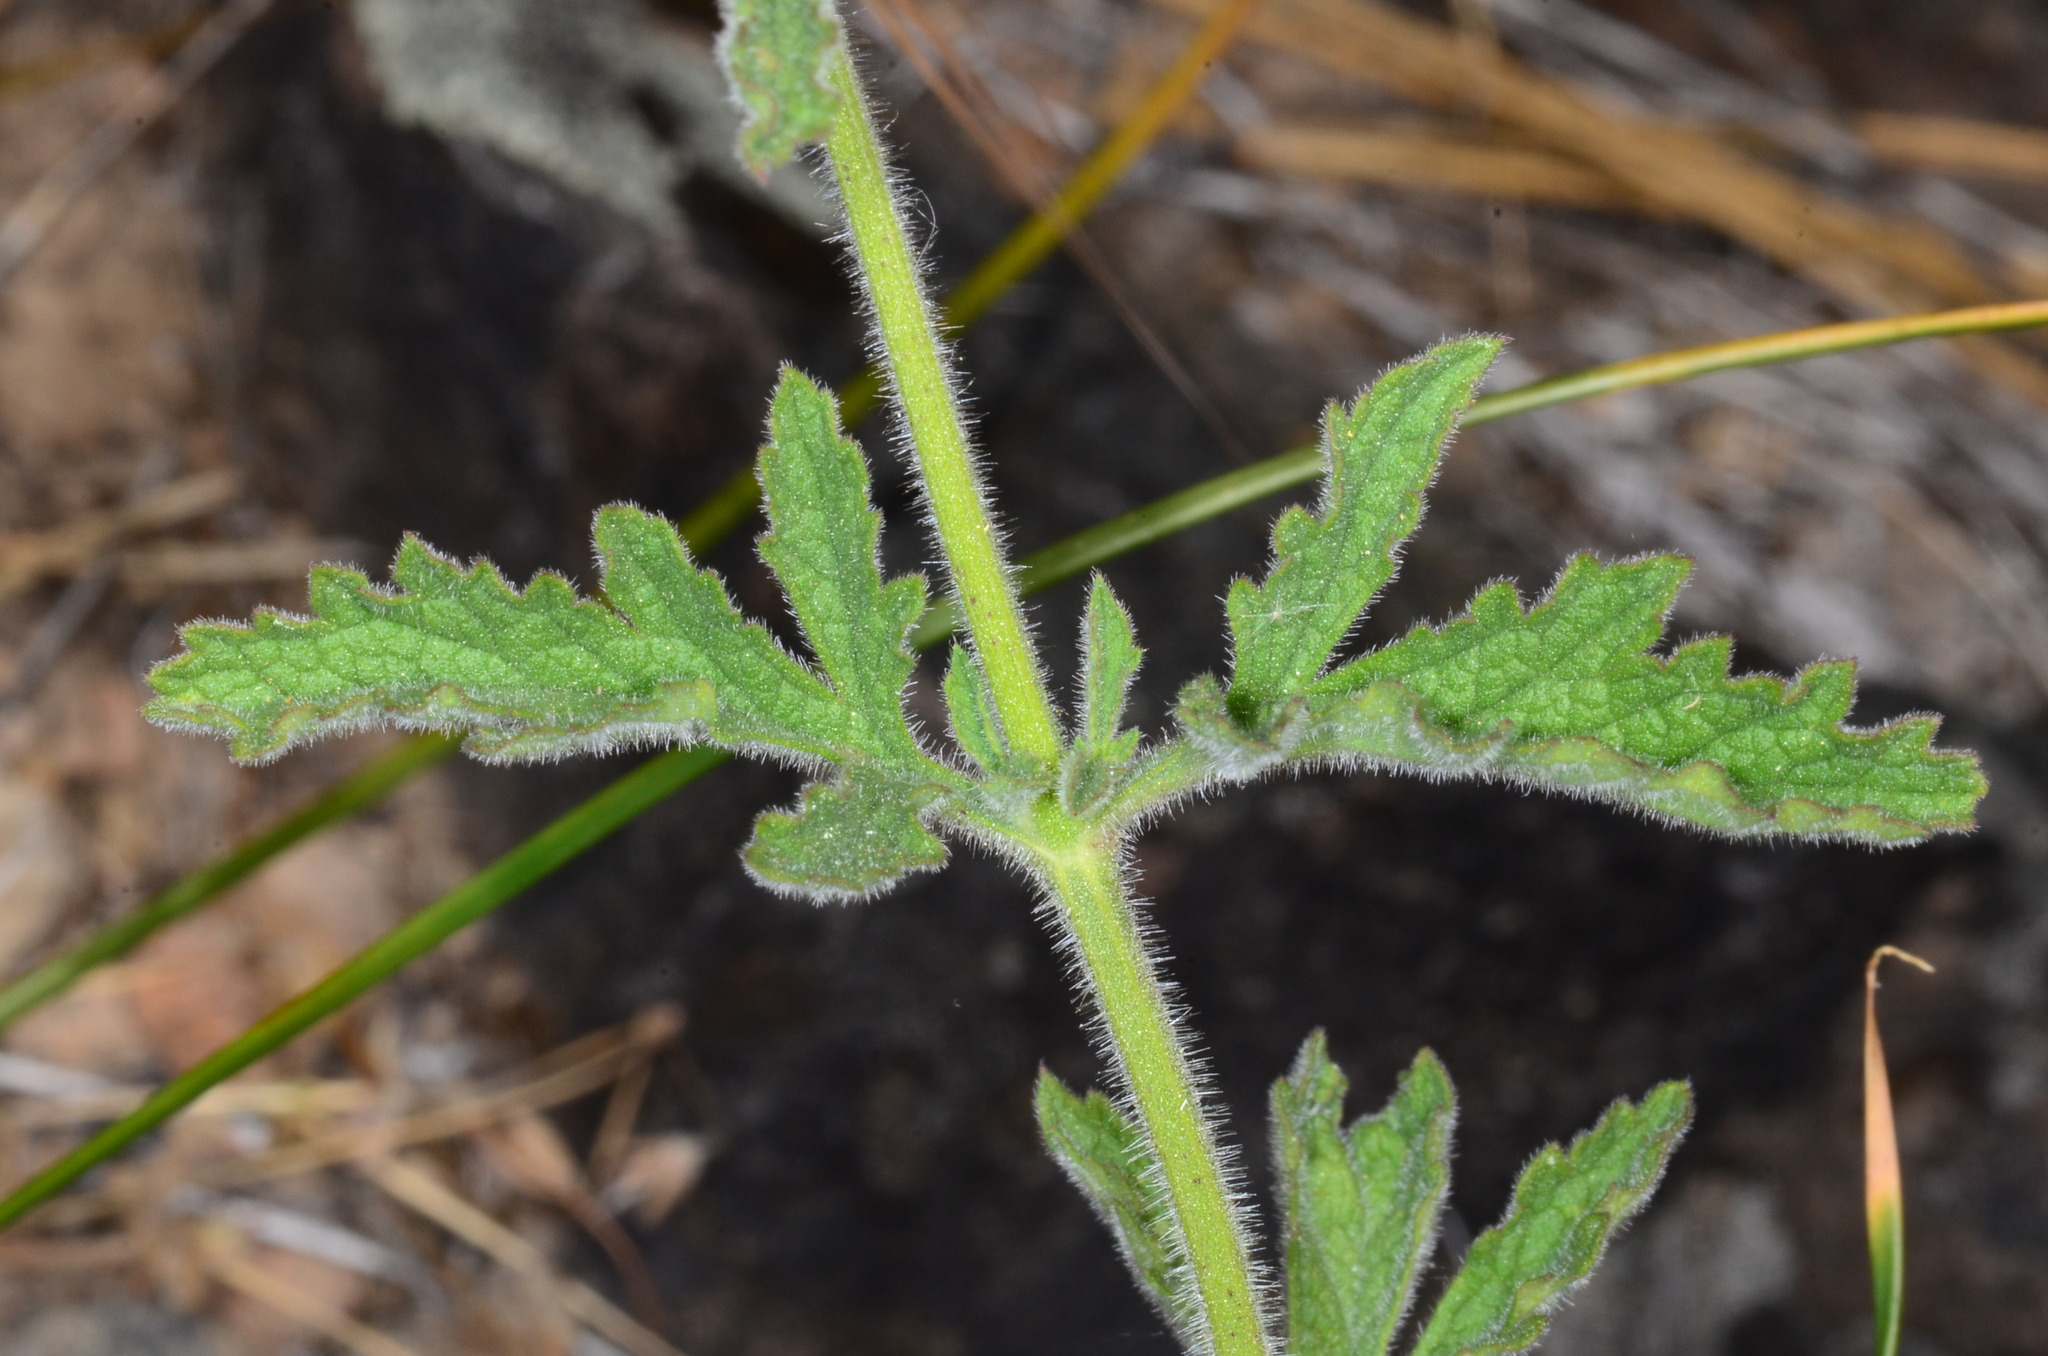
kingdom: Plantae
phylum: Tracheophyta
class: Magnoliopsida
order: Lamiales
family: Verbenaceae
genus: Verbena
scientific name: Verbena lasiostachys
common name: Vervain
